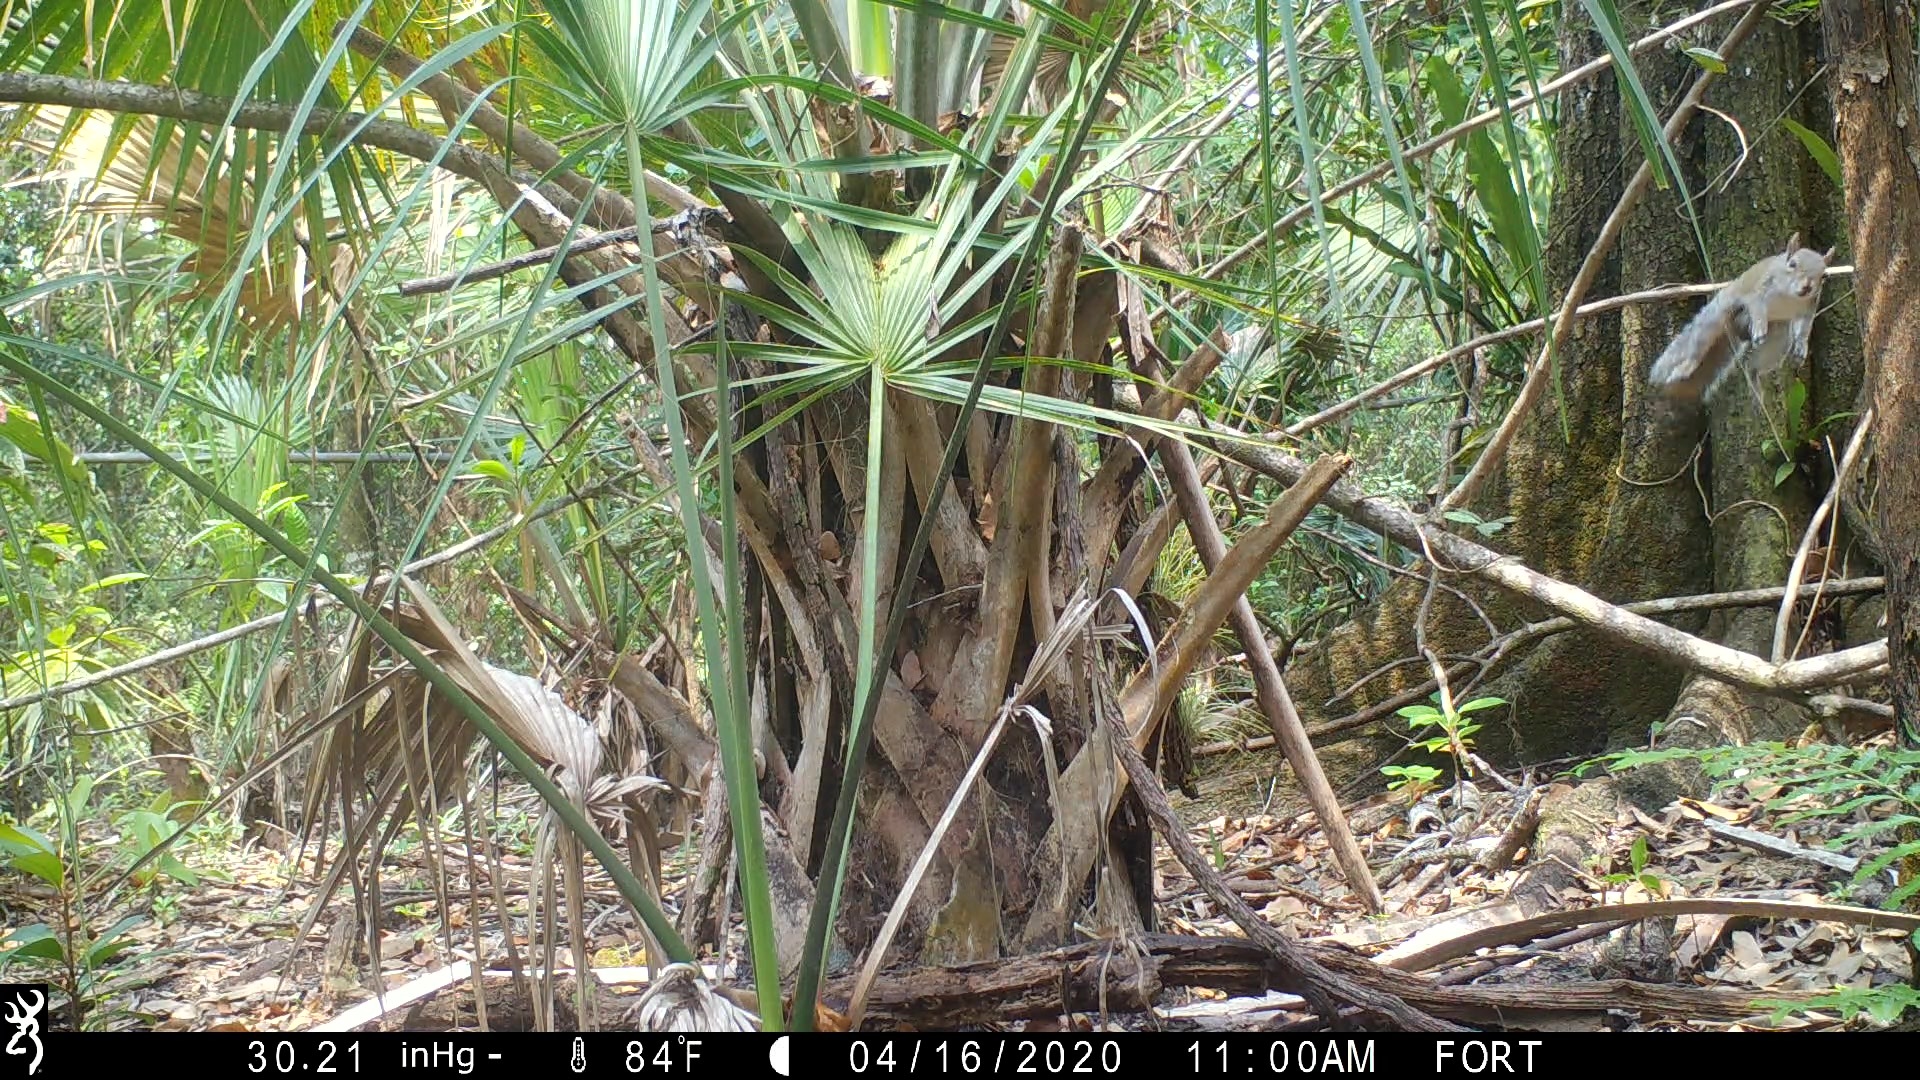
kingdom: Animalia
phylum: Chordata
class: Mammalia
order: Rodentia
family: Sciuridae
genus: Sciurus
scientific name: Sciurus carolinensis
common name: Eastern gray squirrel
